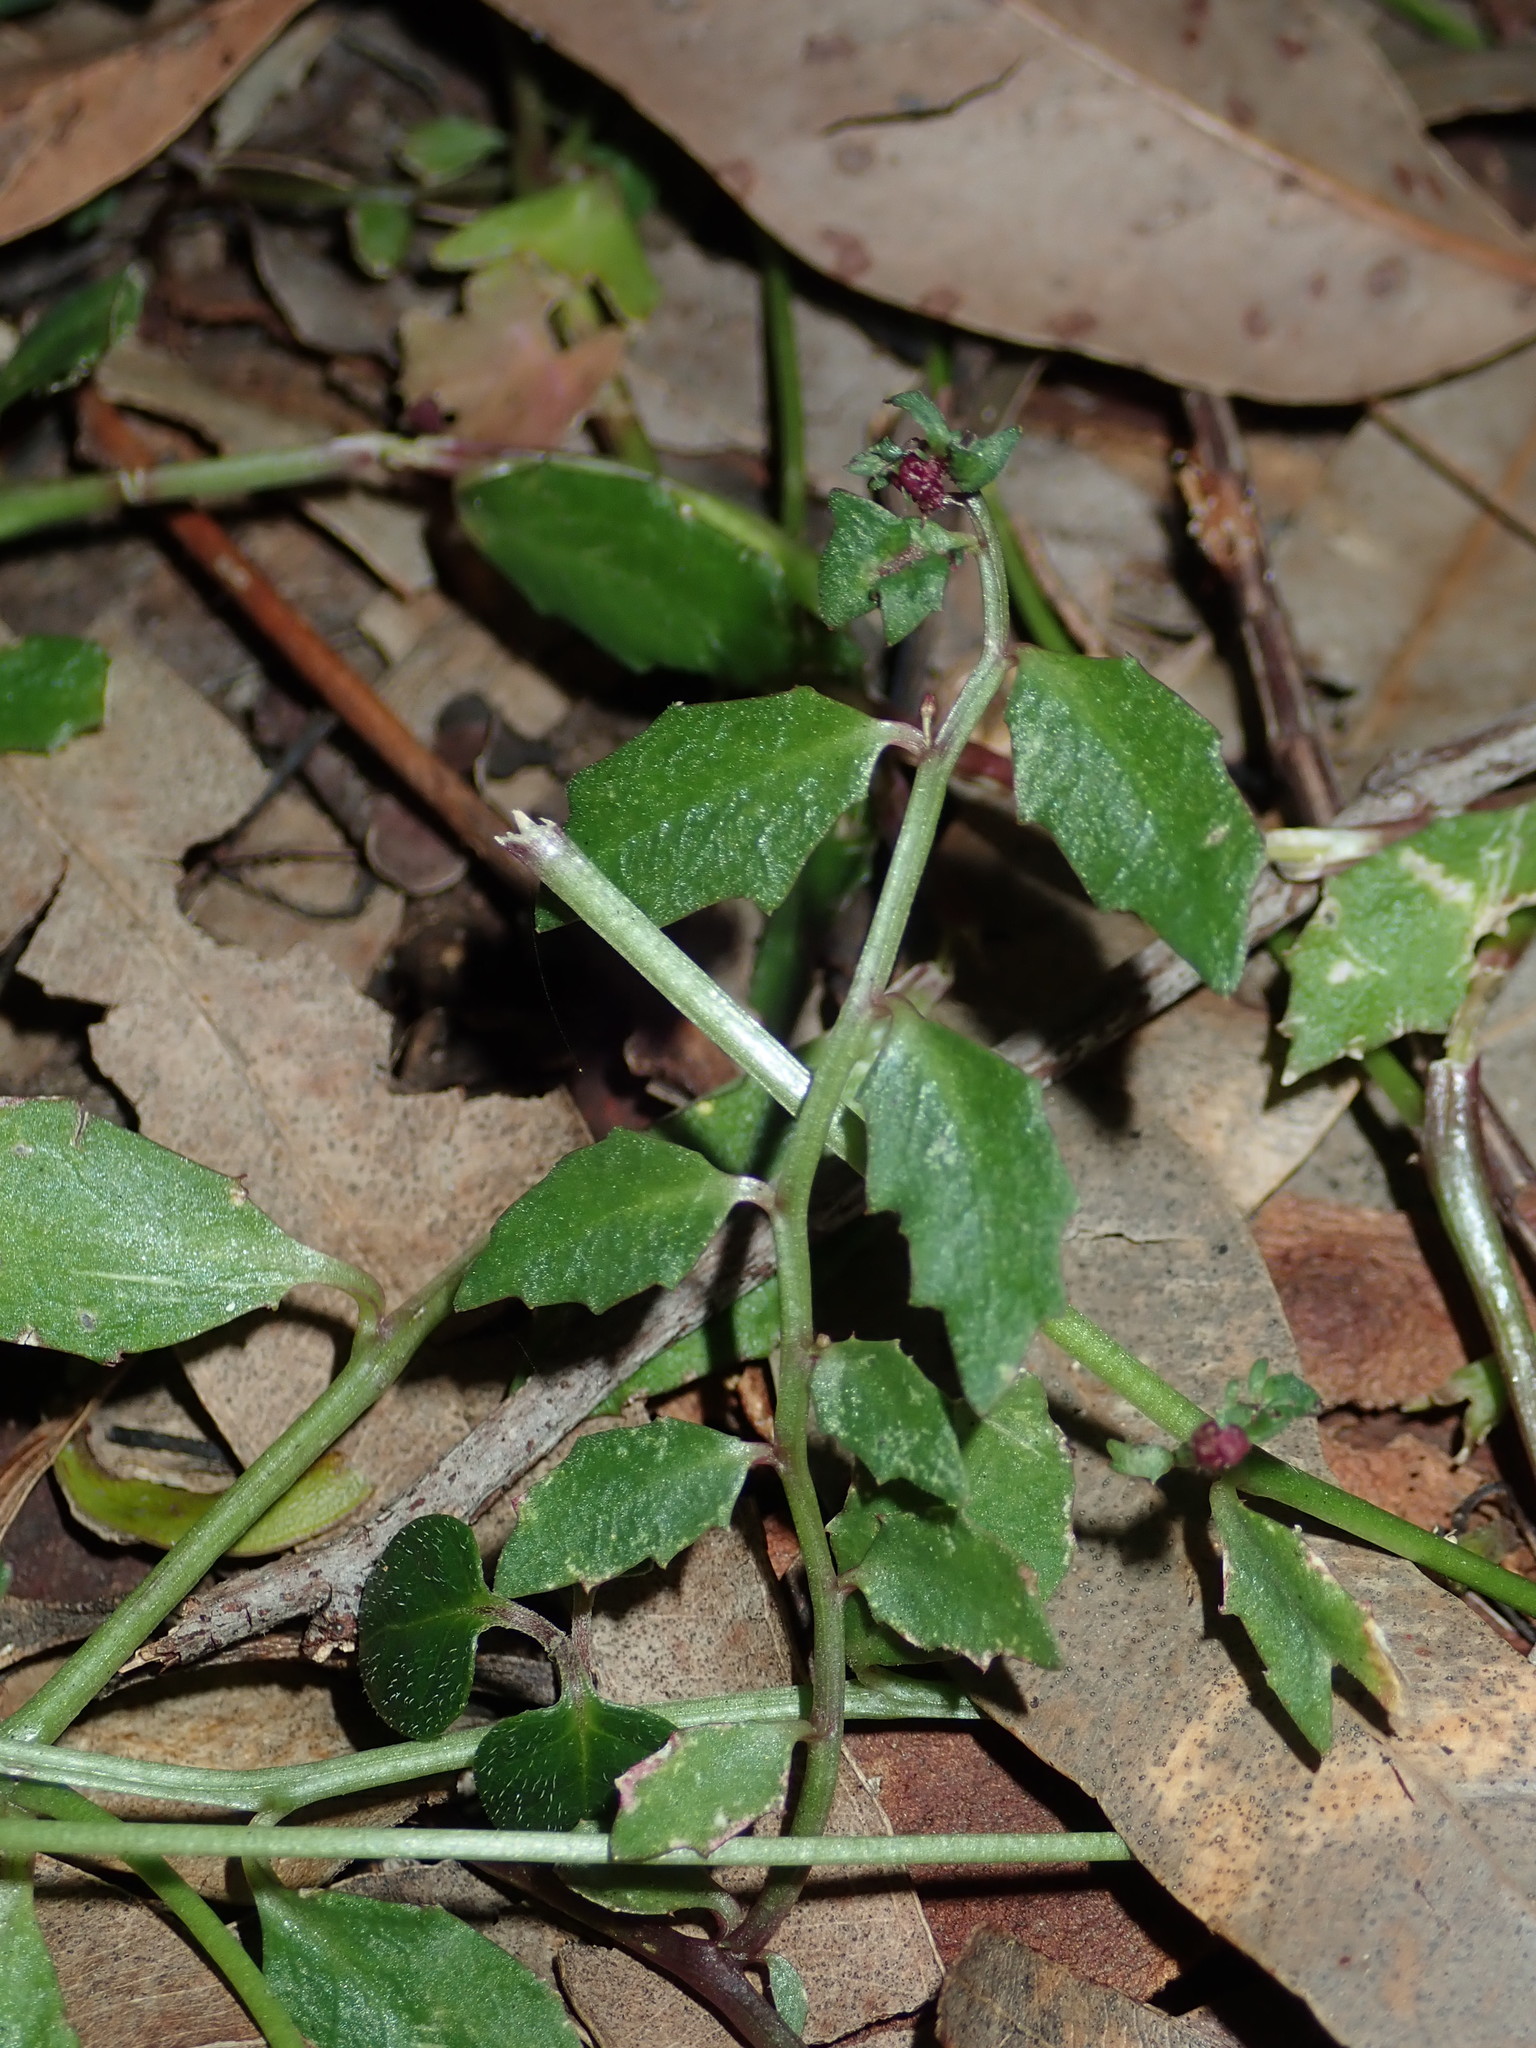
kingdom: Plantae
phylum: Tracheophyta
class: Magnoliopsida
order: Asterales
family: Campanulaceae
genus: Lobelia
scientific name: Lobelia purpurascens
